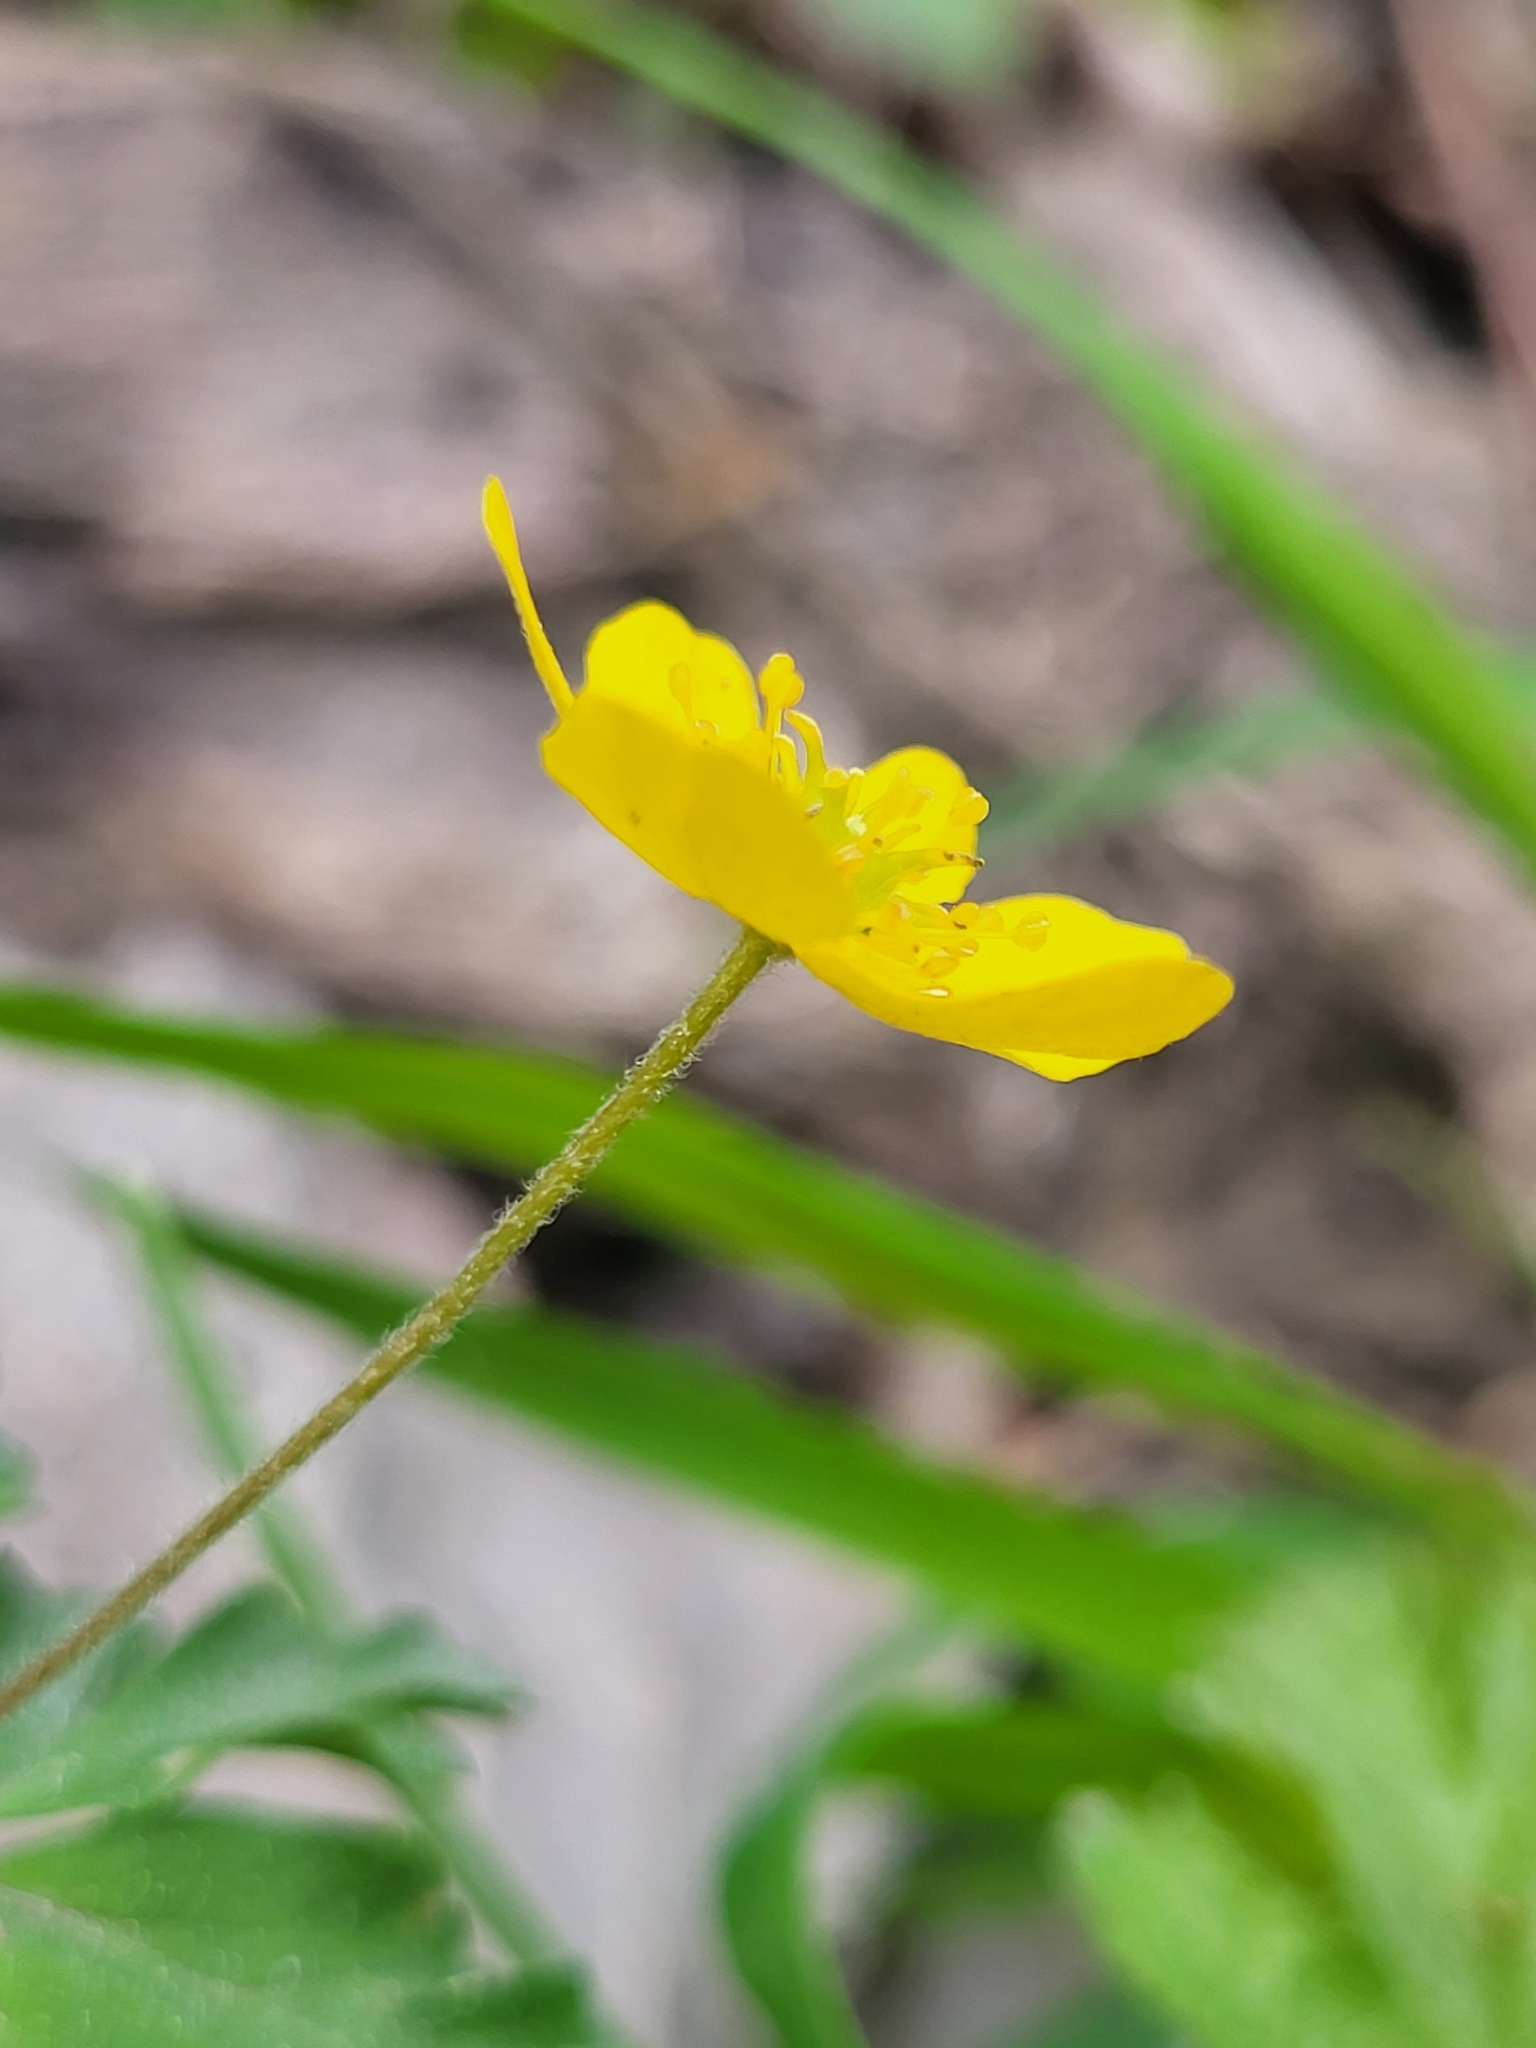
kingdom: Plantae
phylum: Tracheophyta
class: Magnoliopsida
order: Ranunculales
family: Ranunculaceae
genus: Anemone
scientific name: Anemone ranunculoides
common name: Yellow anemone
